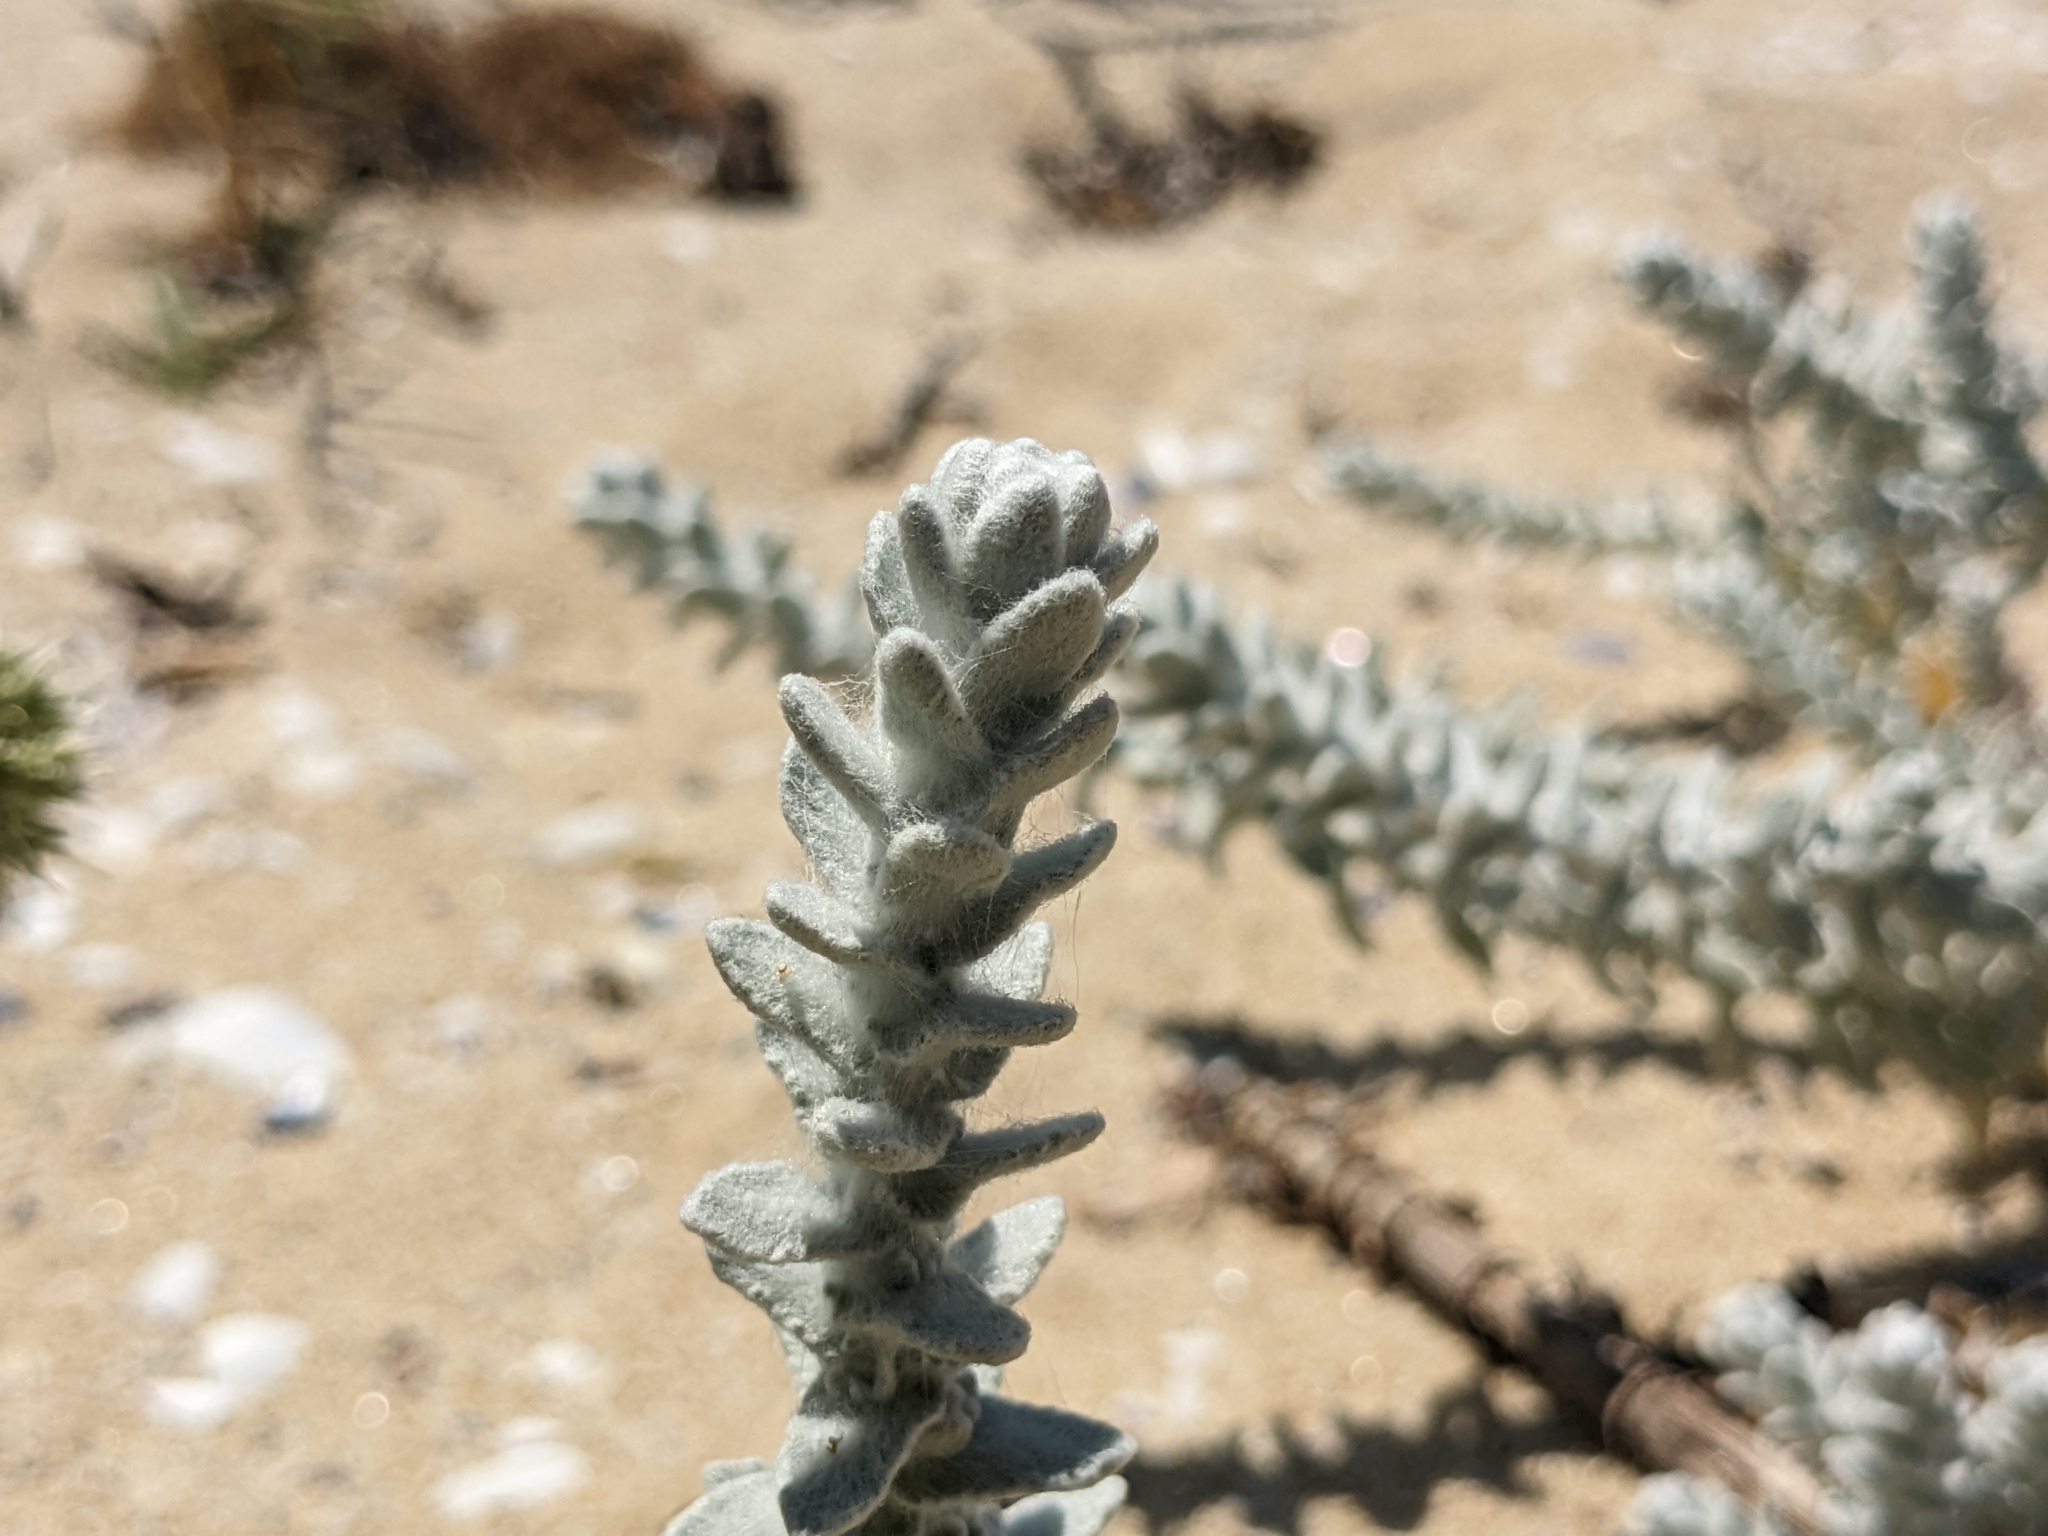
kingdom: Plantae
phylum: Tracheophyta
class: Magnoliopsida
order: Asterales
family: Asteraceae
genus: Achillea
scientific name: Achillea maritima
